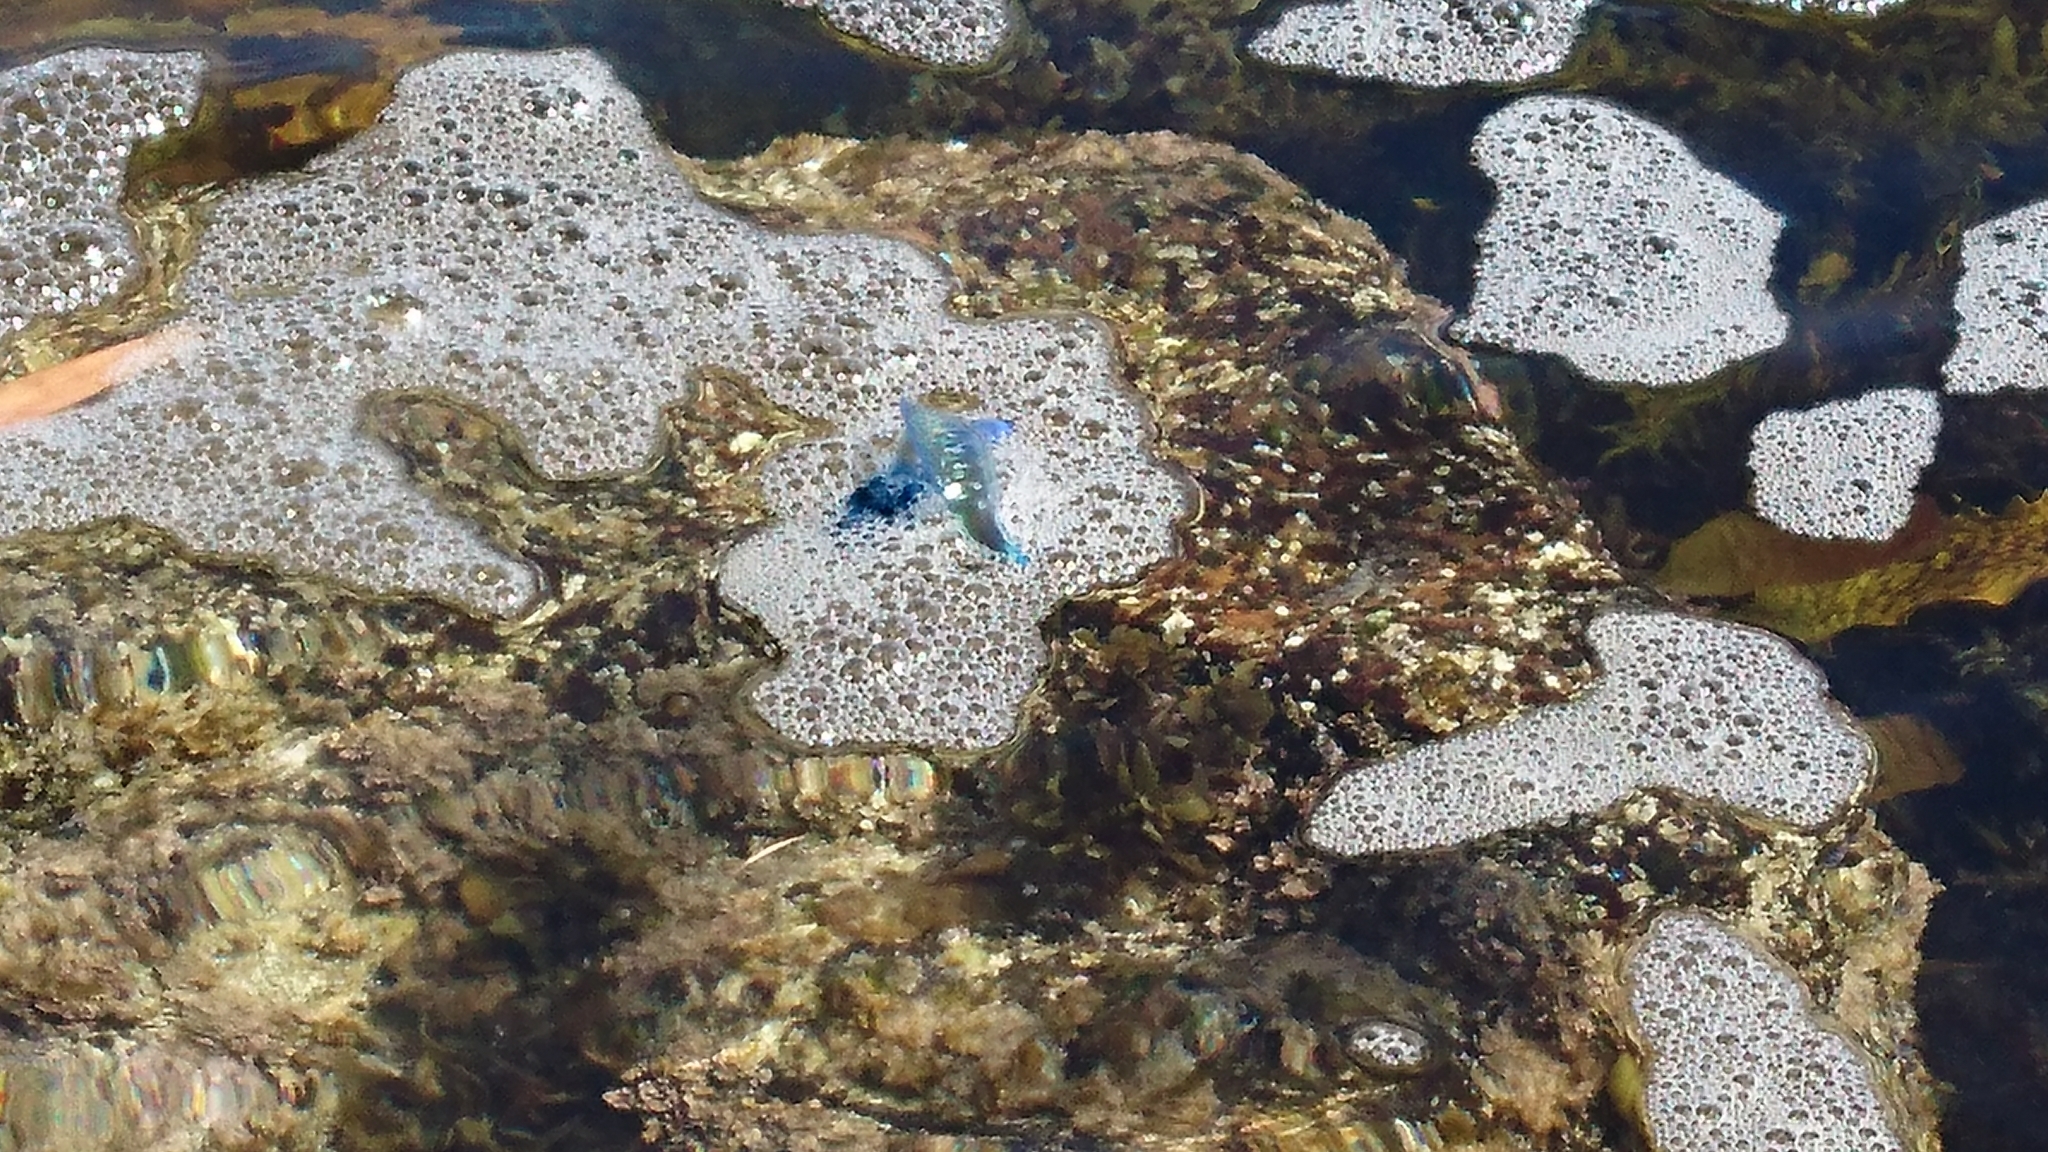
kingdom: Animalia
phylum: Cnidaria
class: Hydrozoa
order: Siphonophorae
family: Physaliidae
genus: Physalia
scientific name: Physalia physalis
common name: Portuguese man-of-war
